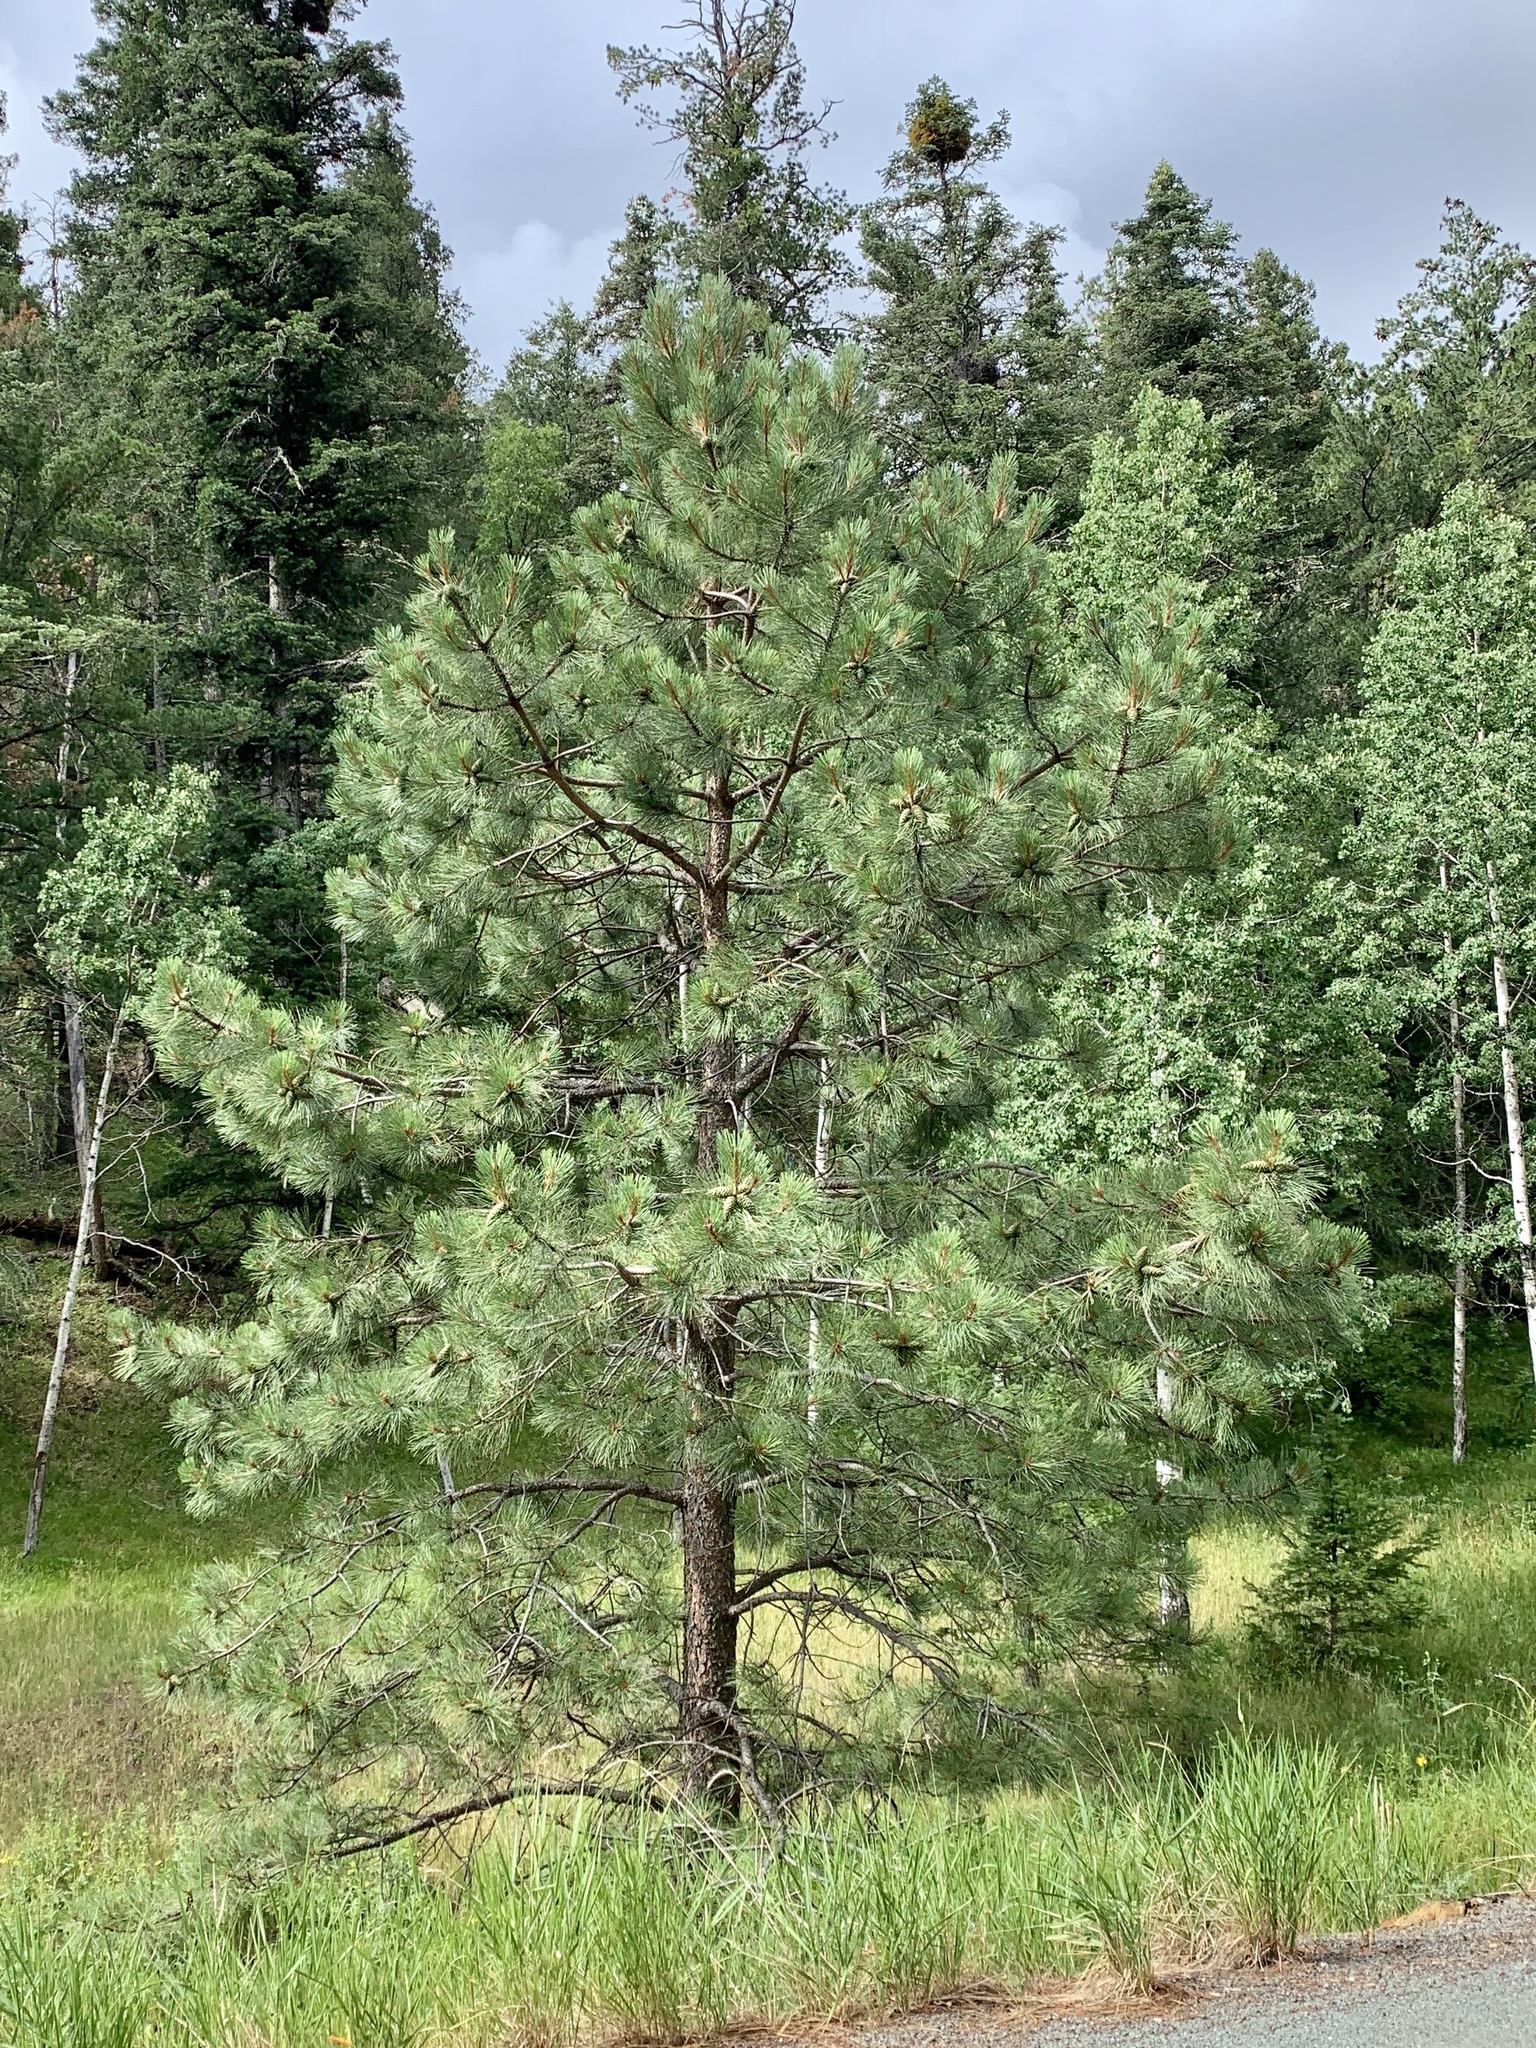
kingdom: Plantae
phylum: Tracheophyta
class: Pinopsida
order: Pinales
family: Pinaceae
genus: Pinus
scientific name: Pinus ponderosa
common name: Western yellow-pine
